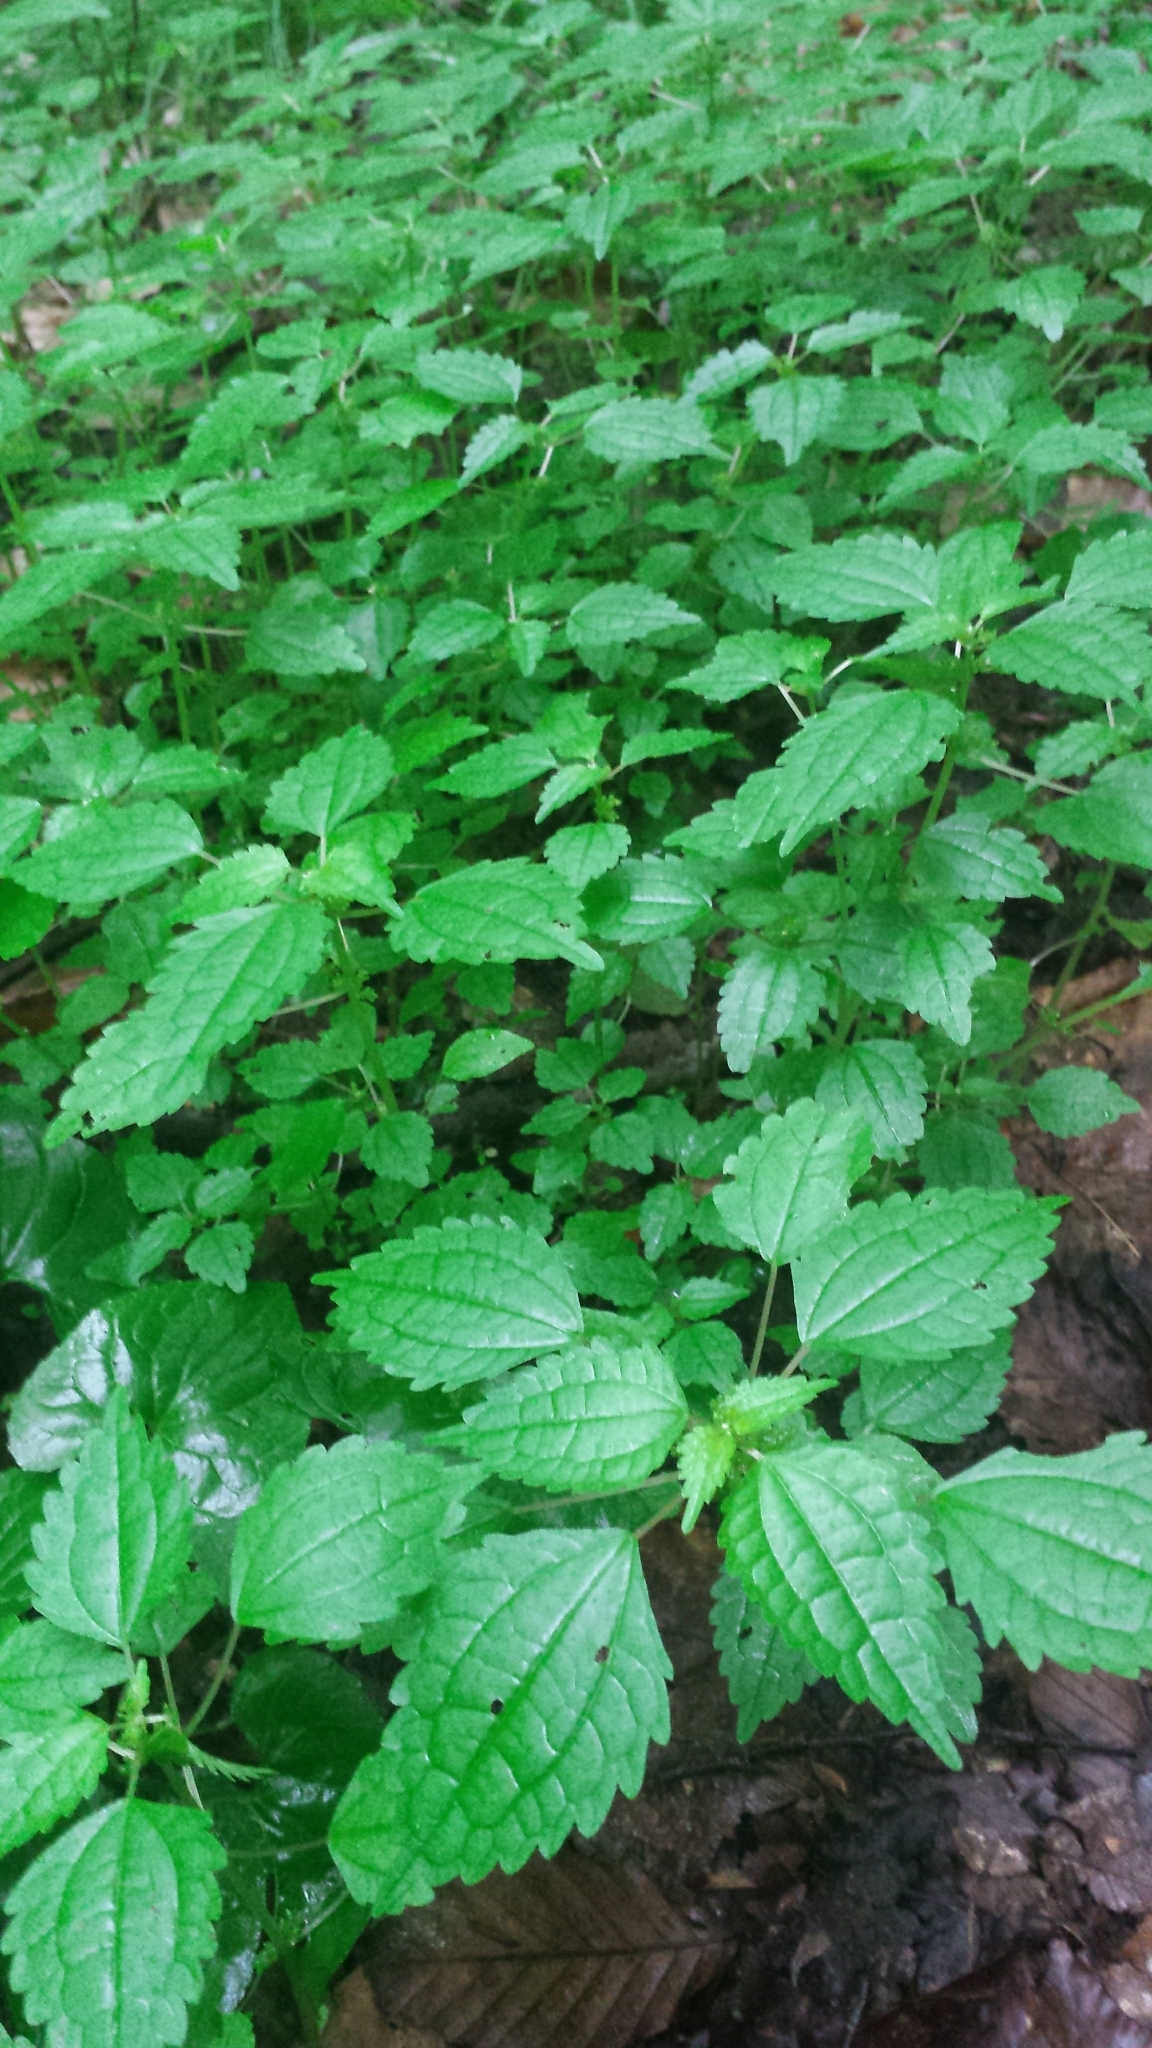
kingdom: Plantae
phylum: Tracheophyta
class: Magnoliopsida
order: Rosales
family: Urticaceae
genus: Pilea
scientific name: Pilea pumila
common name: Clearweed
